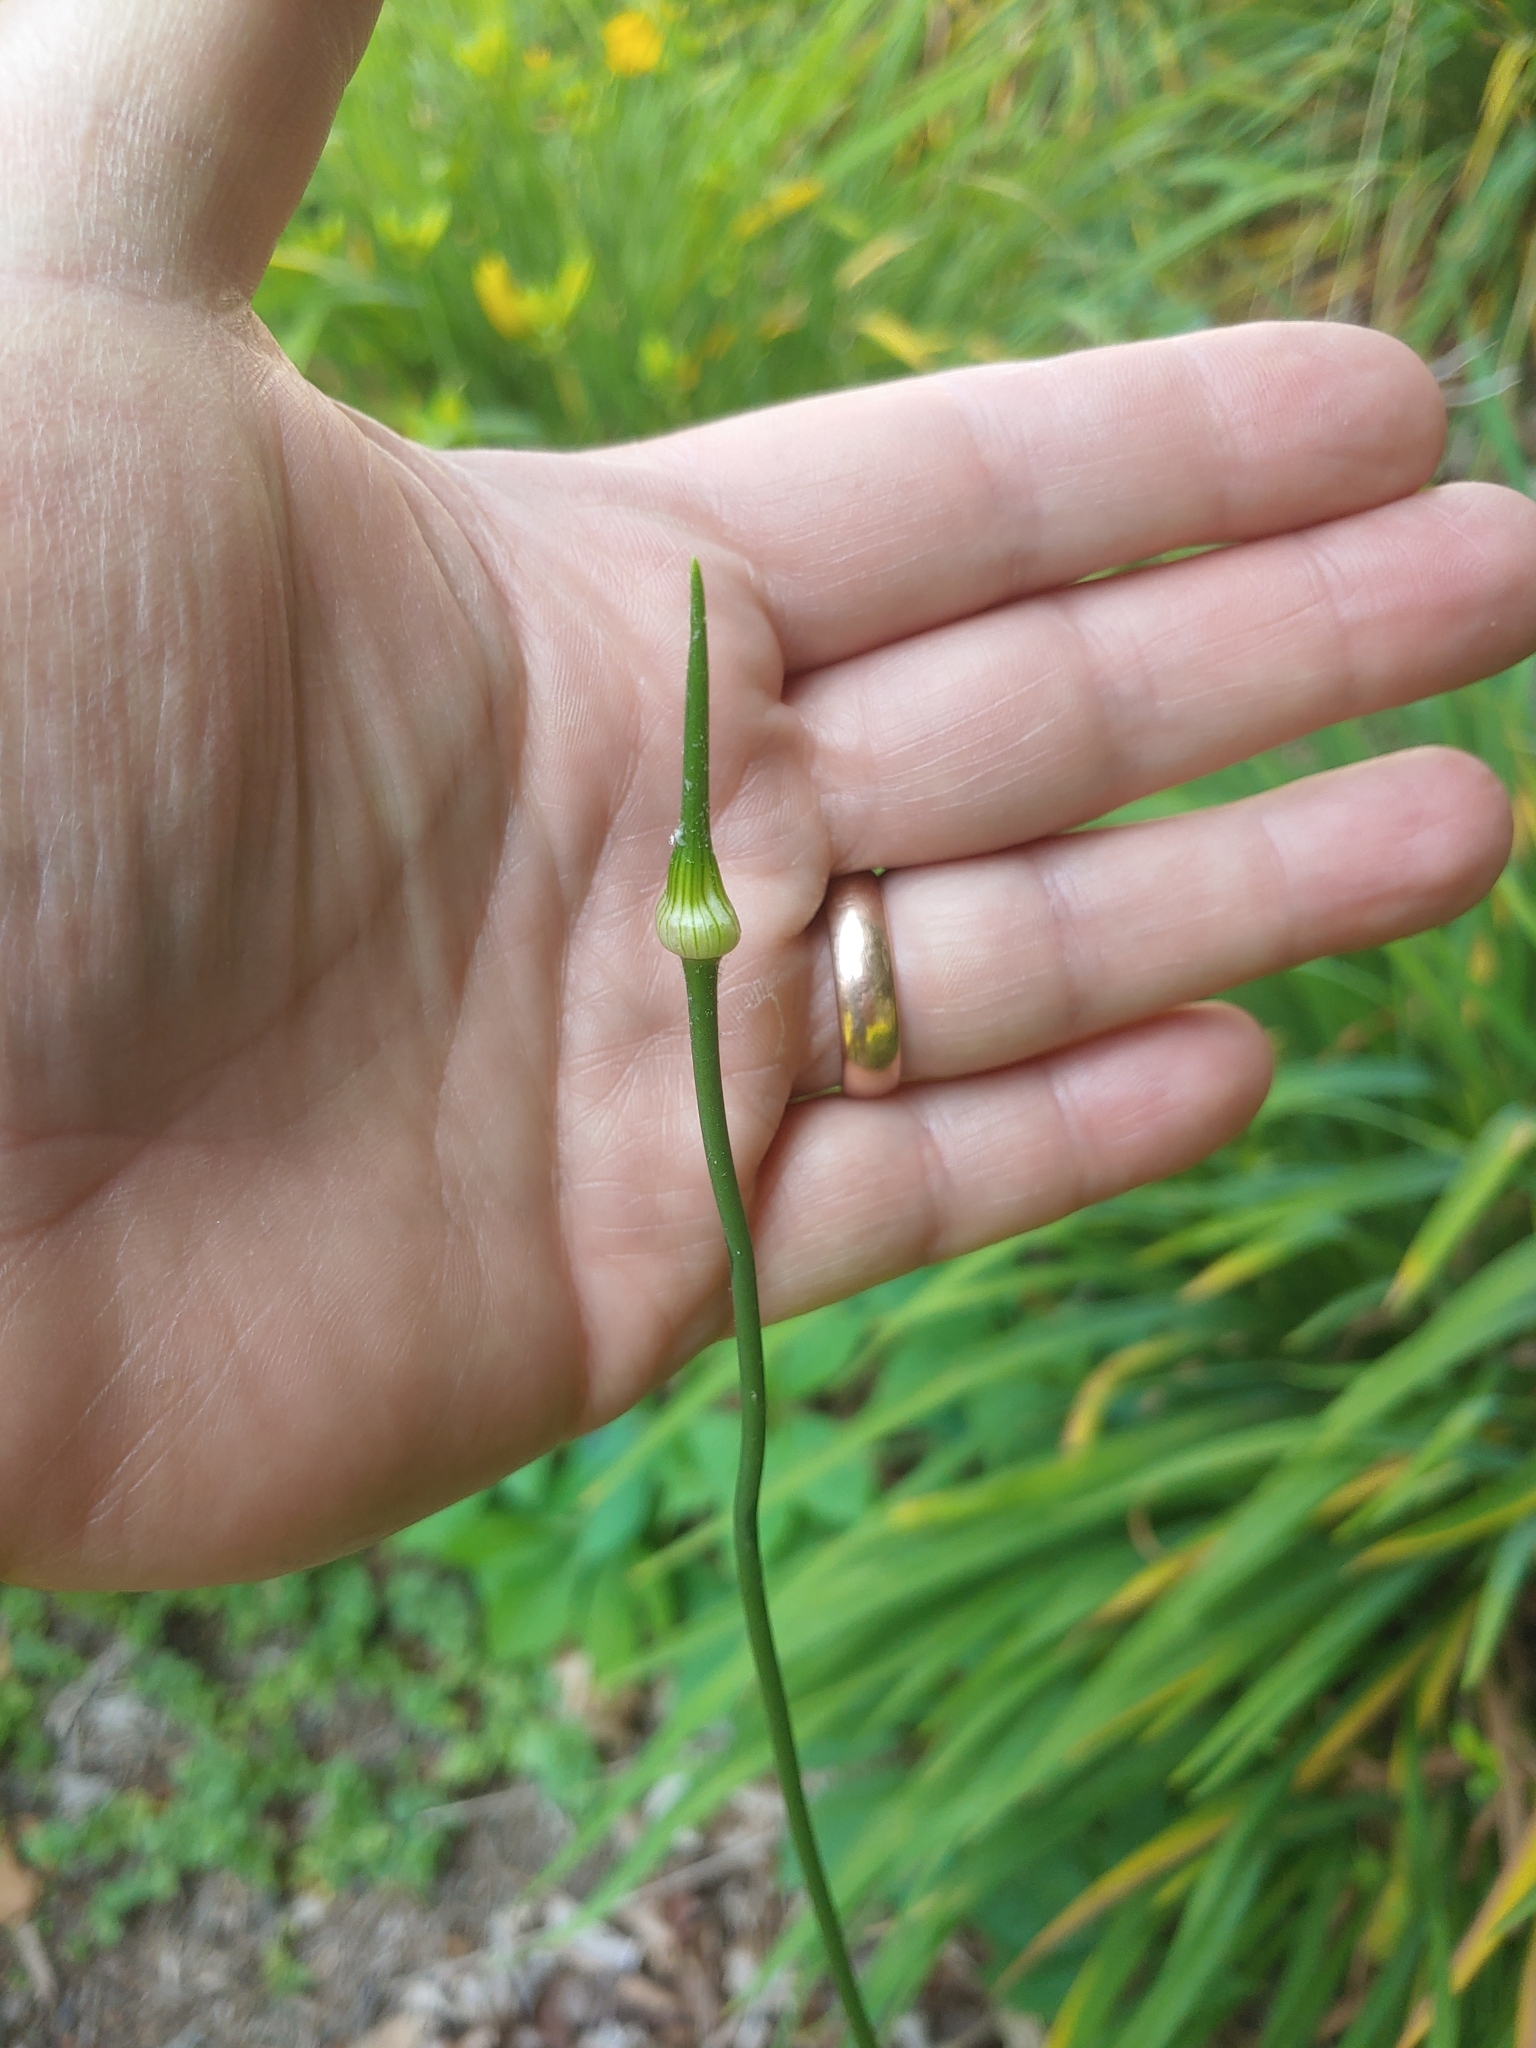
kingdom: Plantae
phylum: Tracheophyta
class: Liliopsida
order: Asparagales
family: Amaryllidaceae
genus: Allium
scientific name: Allium vineale
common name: Crow garlic
